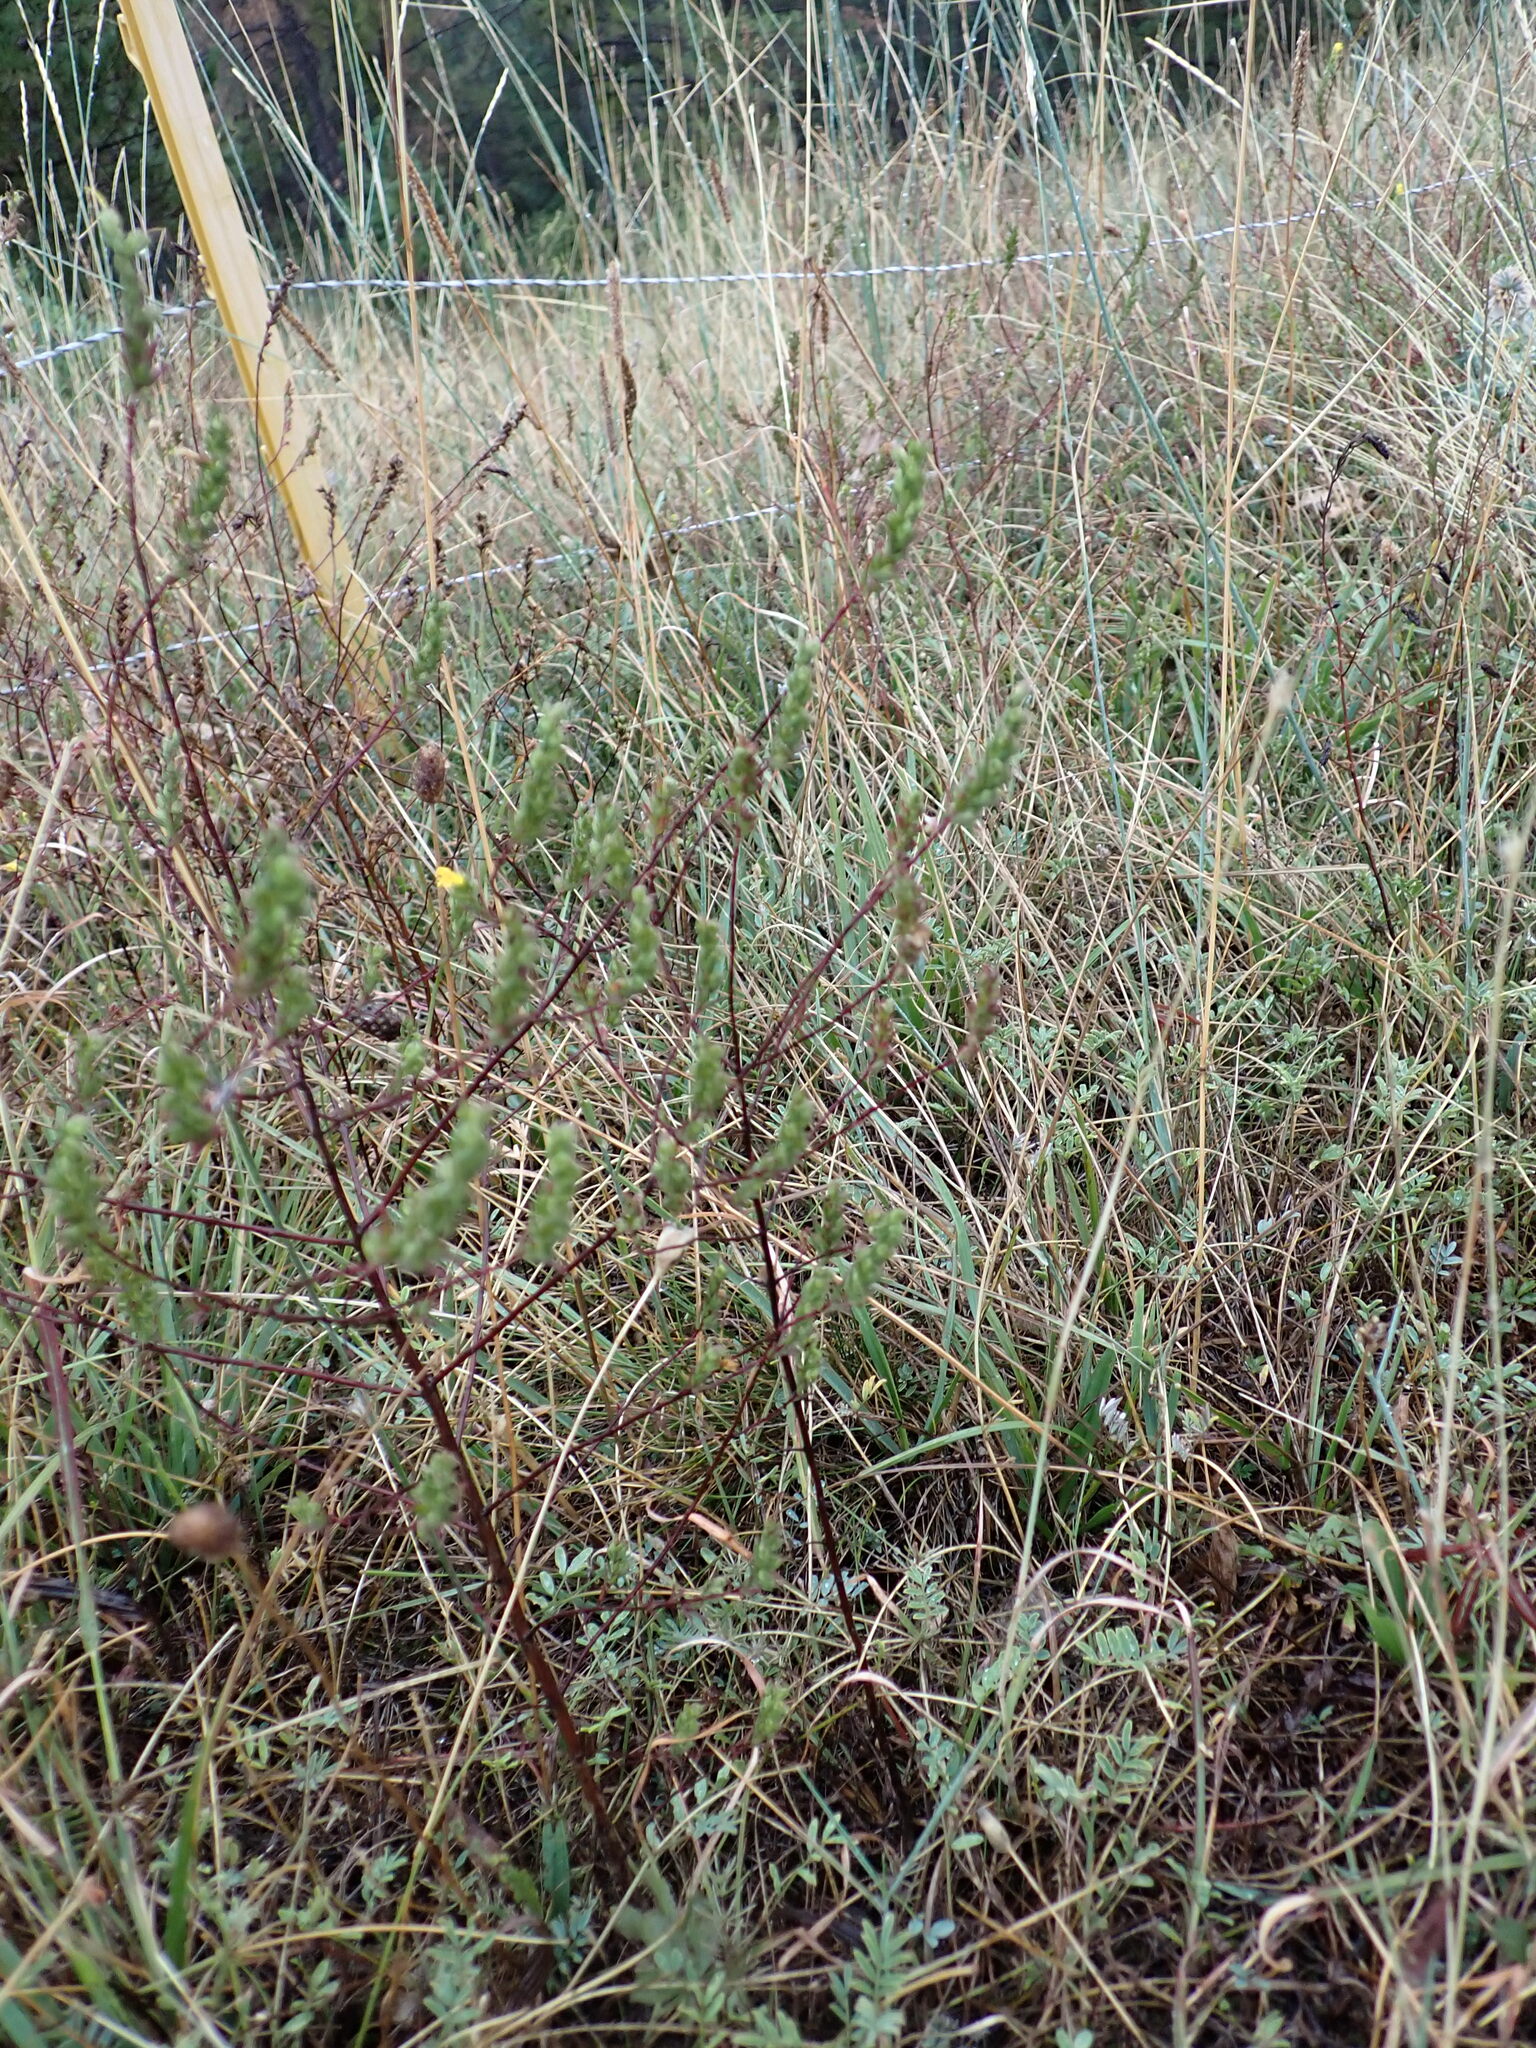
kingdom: Plantae
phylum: Tracheophyta
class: Magnoliopsida
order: Lamiales
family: Orobanchaceae
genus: Odontites
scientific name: Odontites luteus
